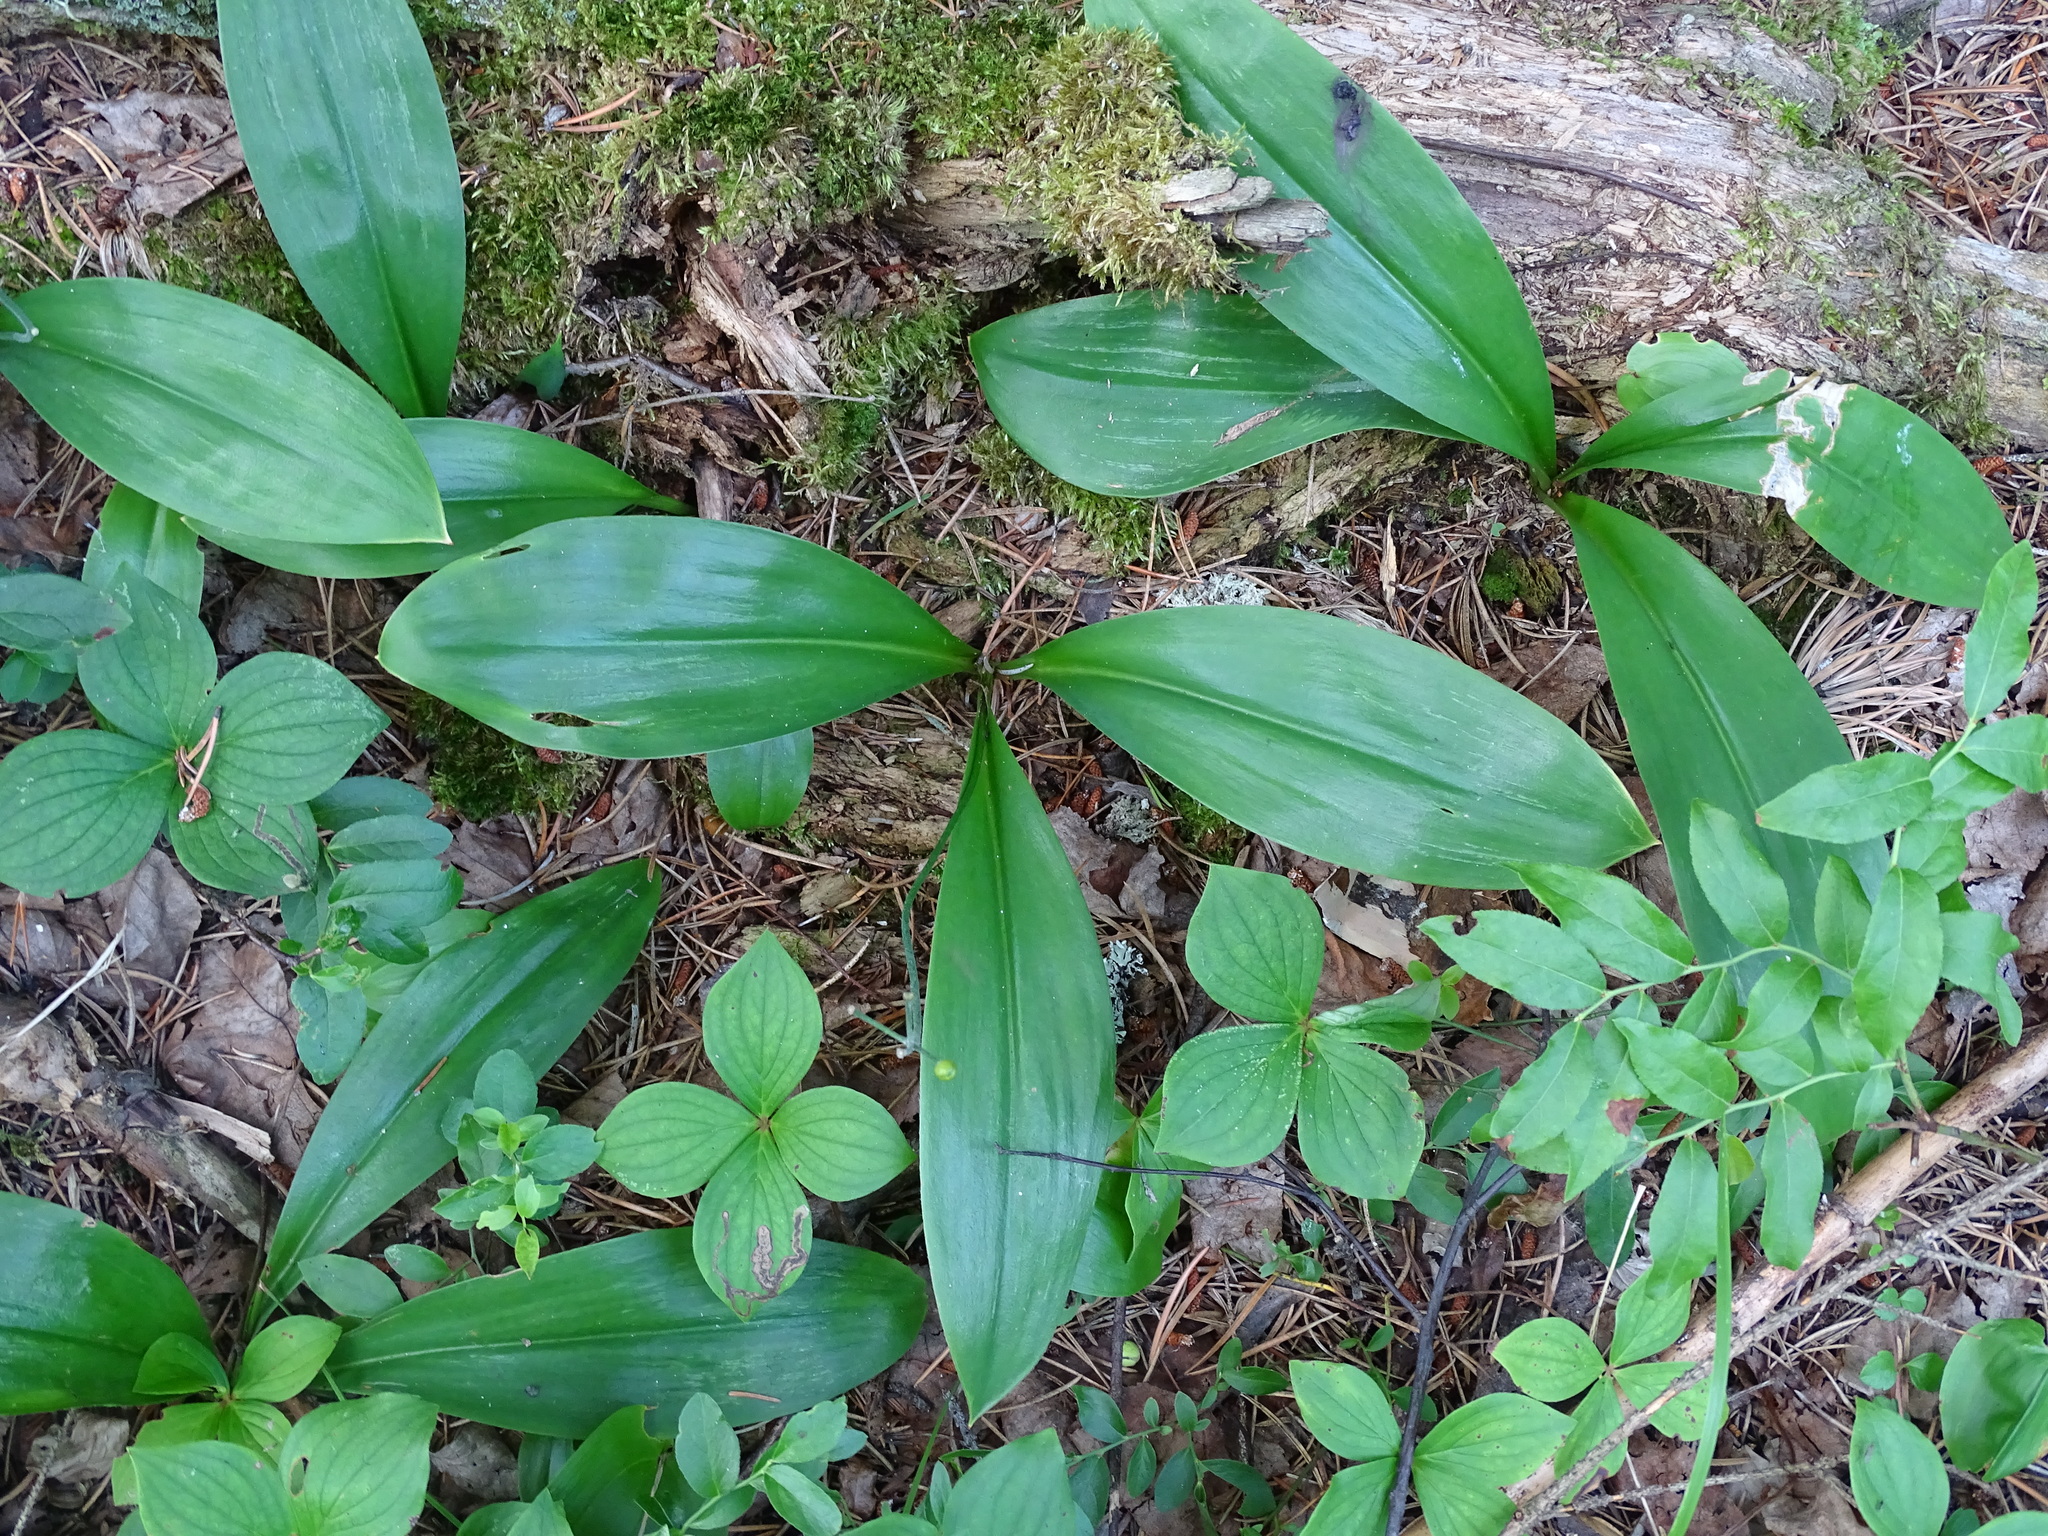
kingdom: Plantae
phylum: Tracheophyta
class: Liliopsida
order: Liliales
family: Liliaceae
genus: Clintonia
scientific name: Clintonia borealis
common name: Yellow clintonia
